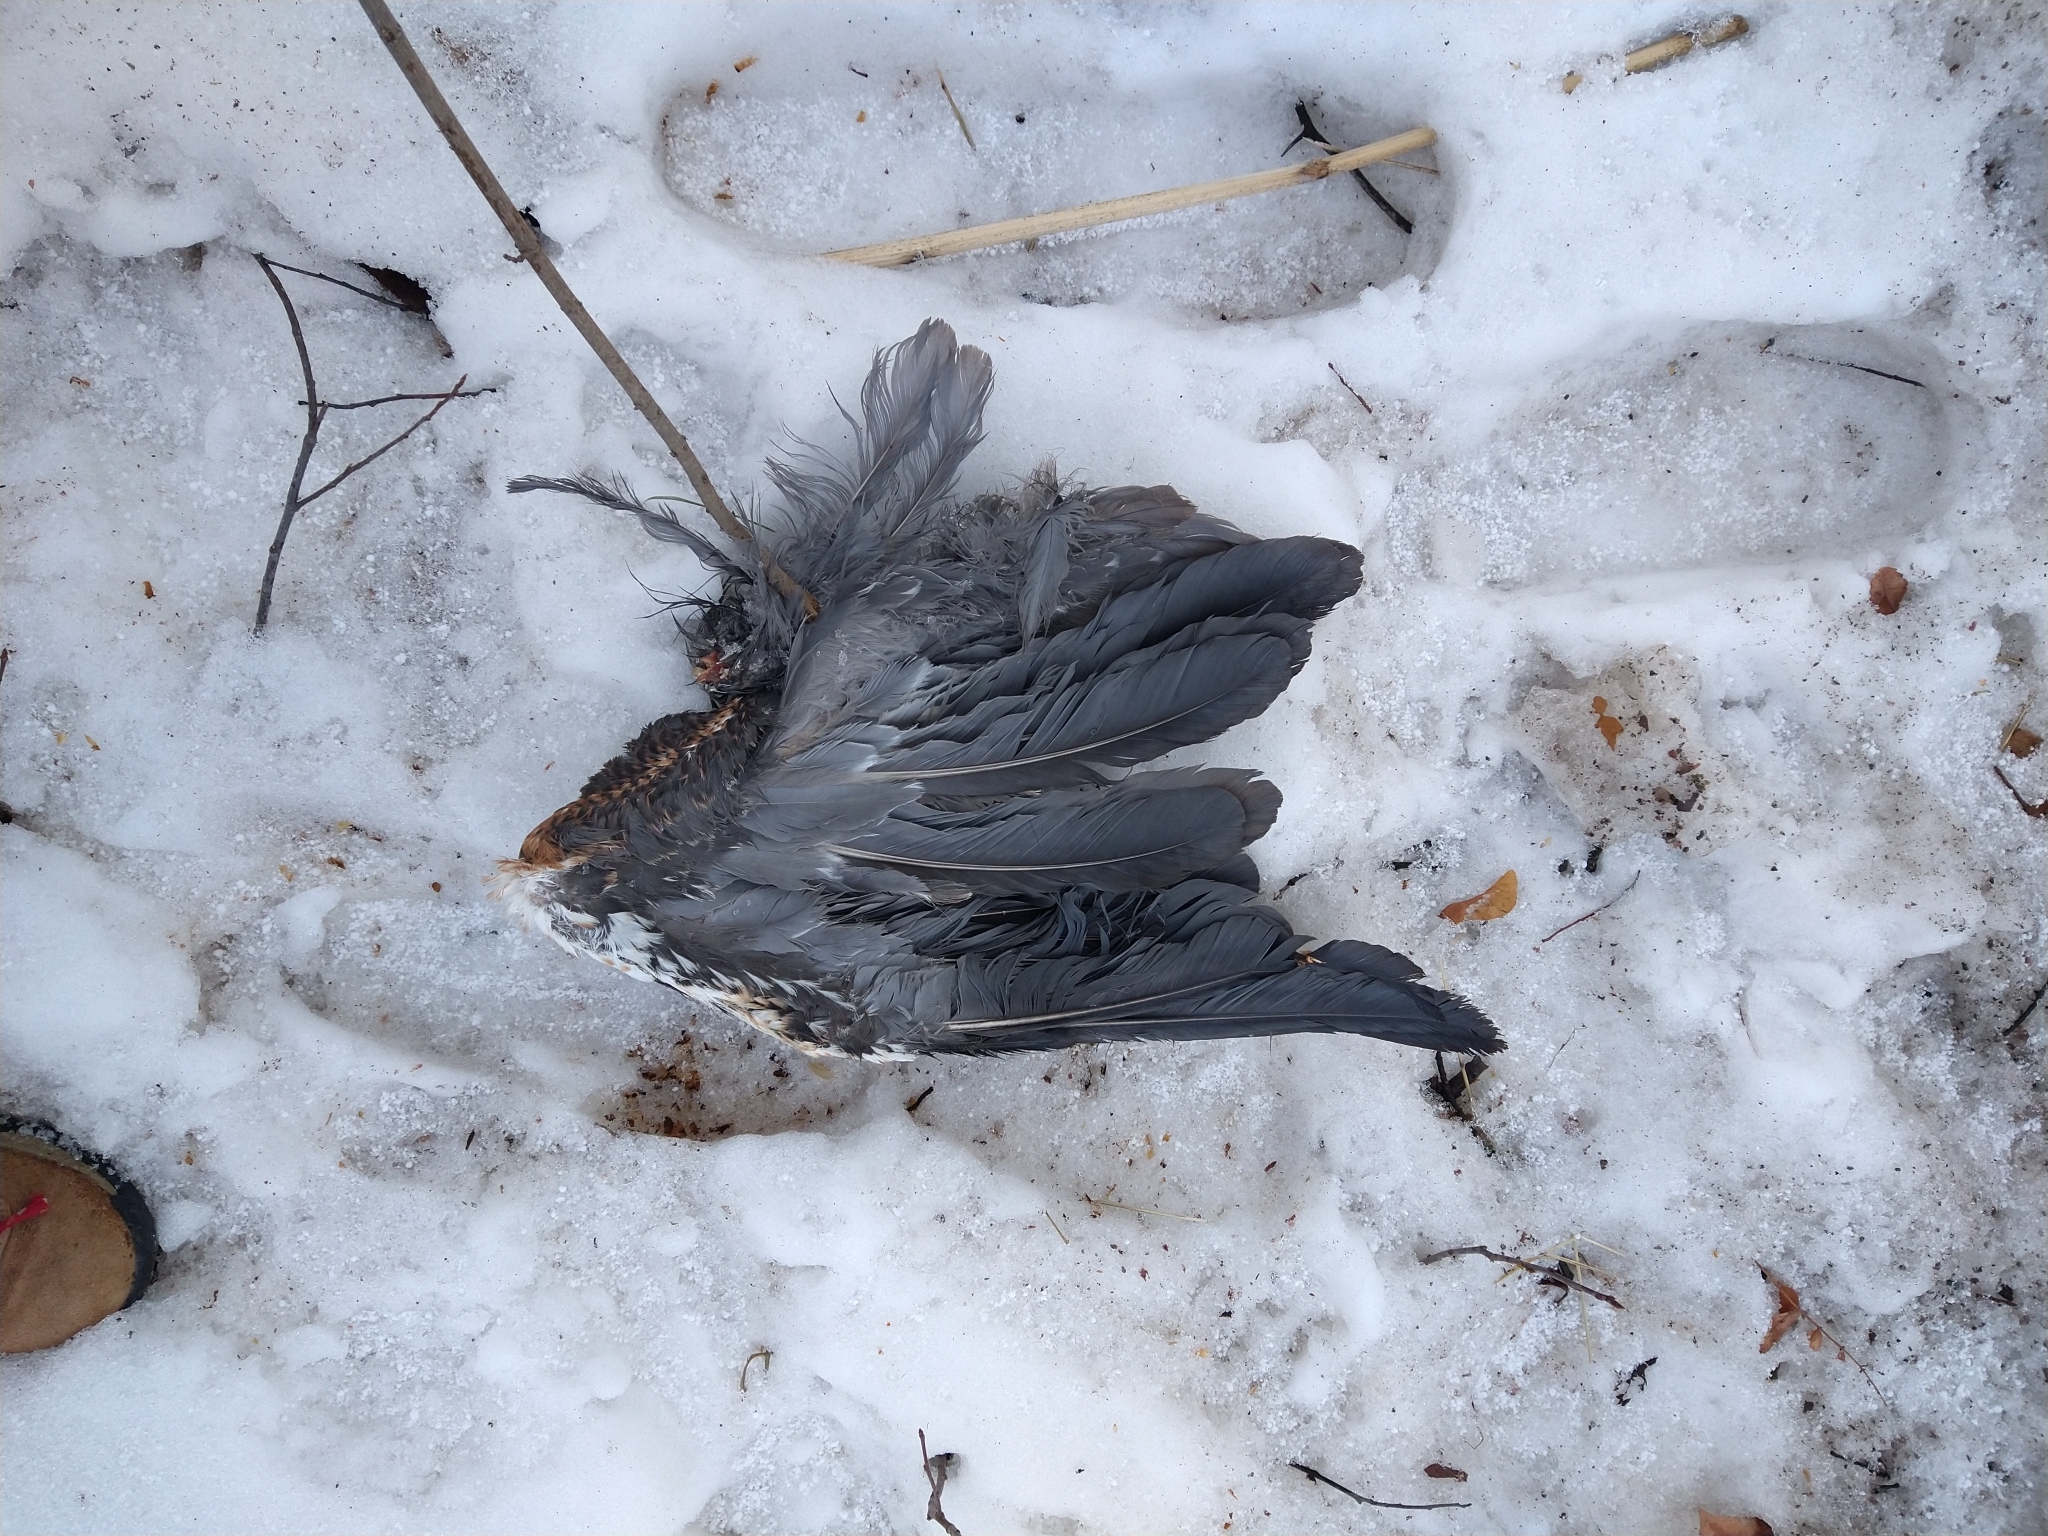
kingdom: Animalia
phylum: Chordata
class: Aves
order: Pelecaniformes
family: Ardeidae
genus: Ardea
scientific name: Ardea herodias
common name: Great blue heron
